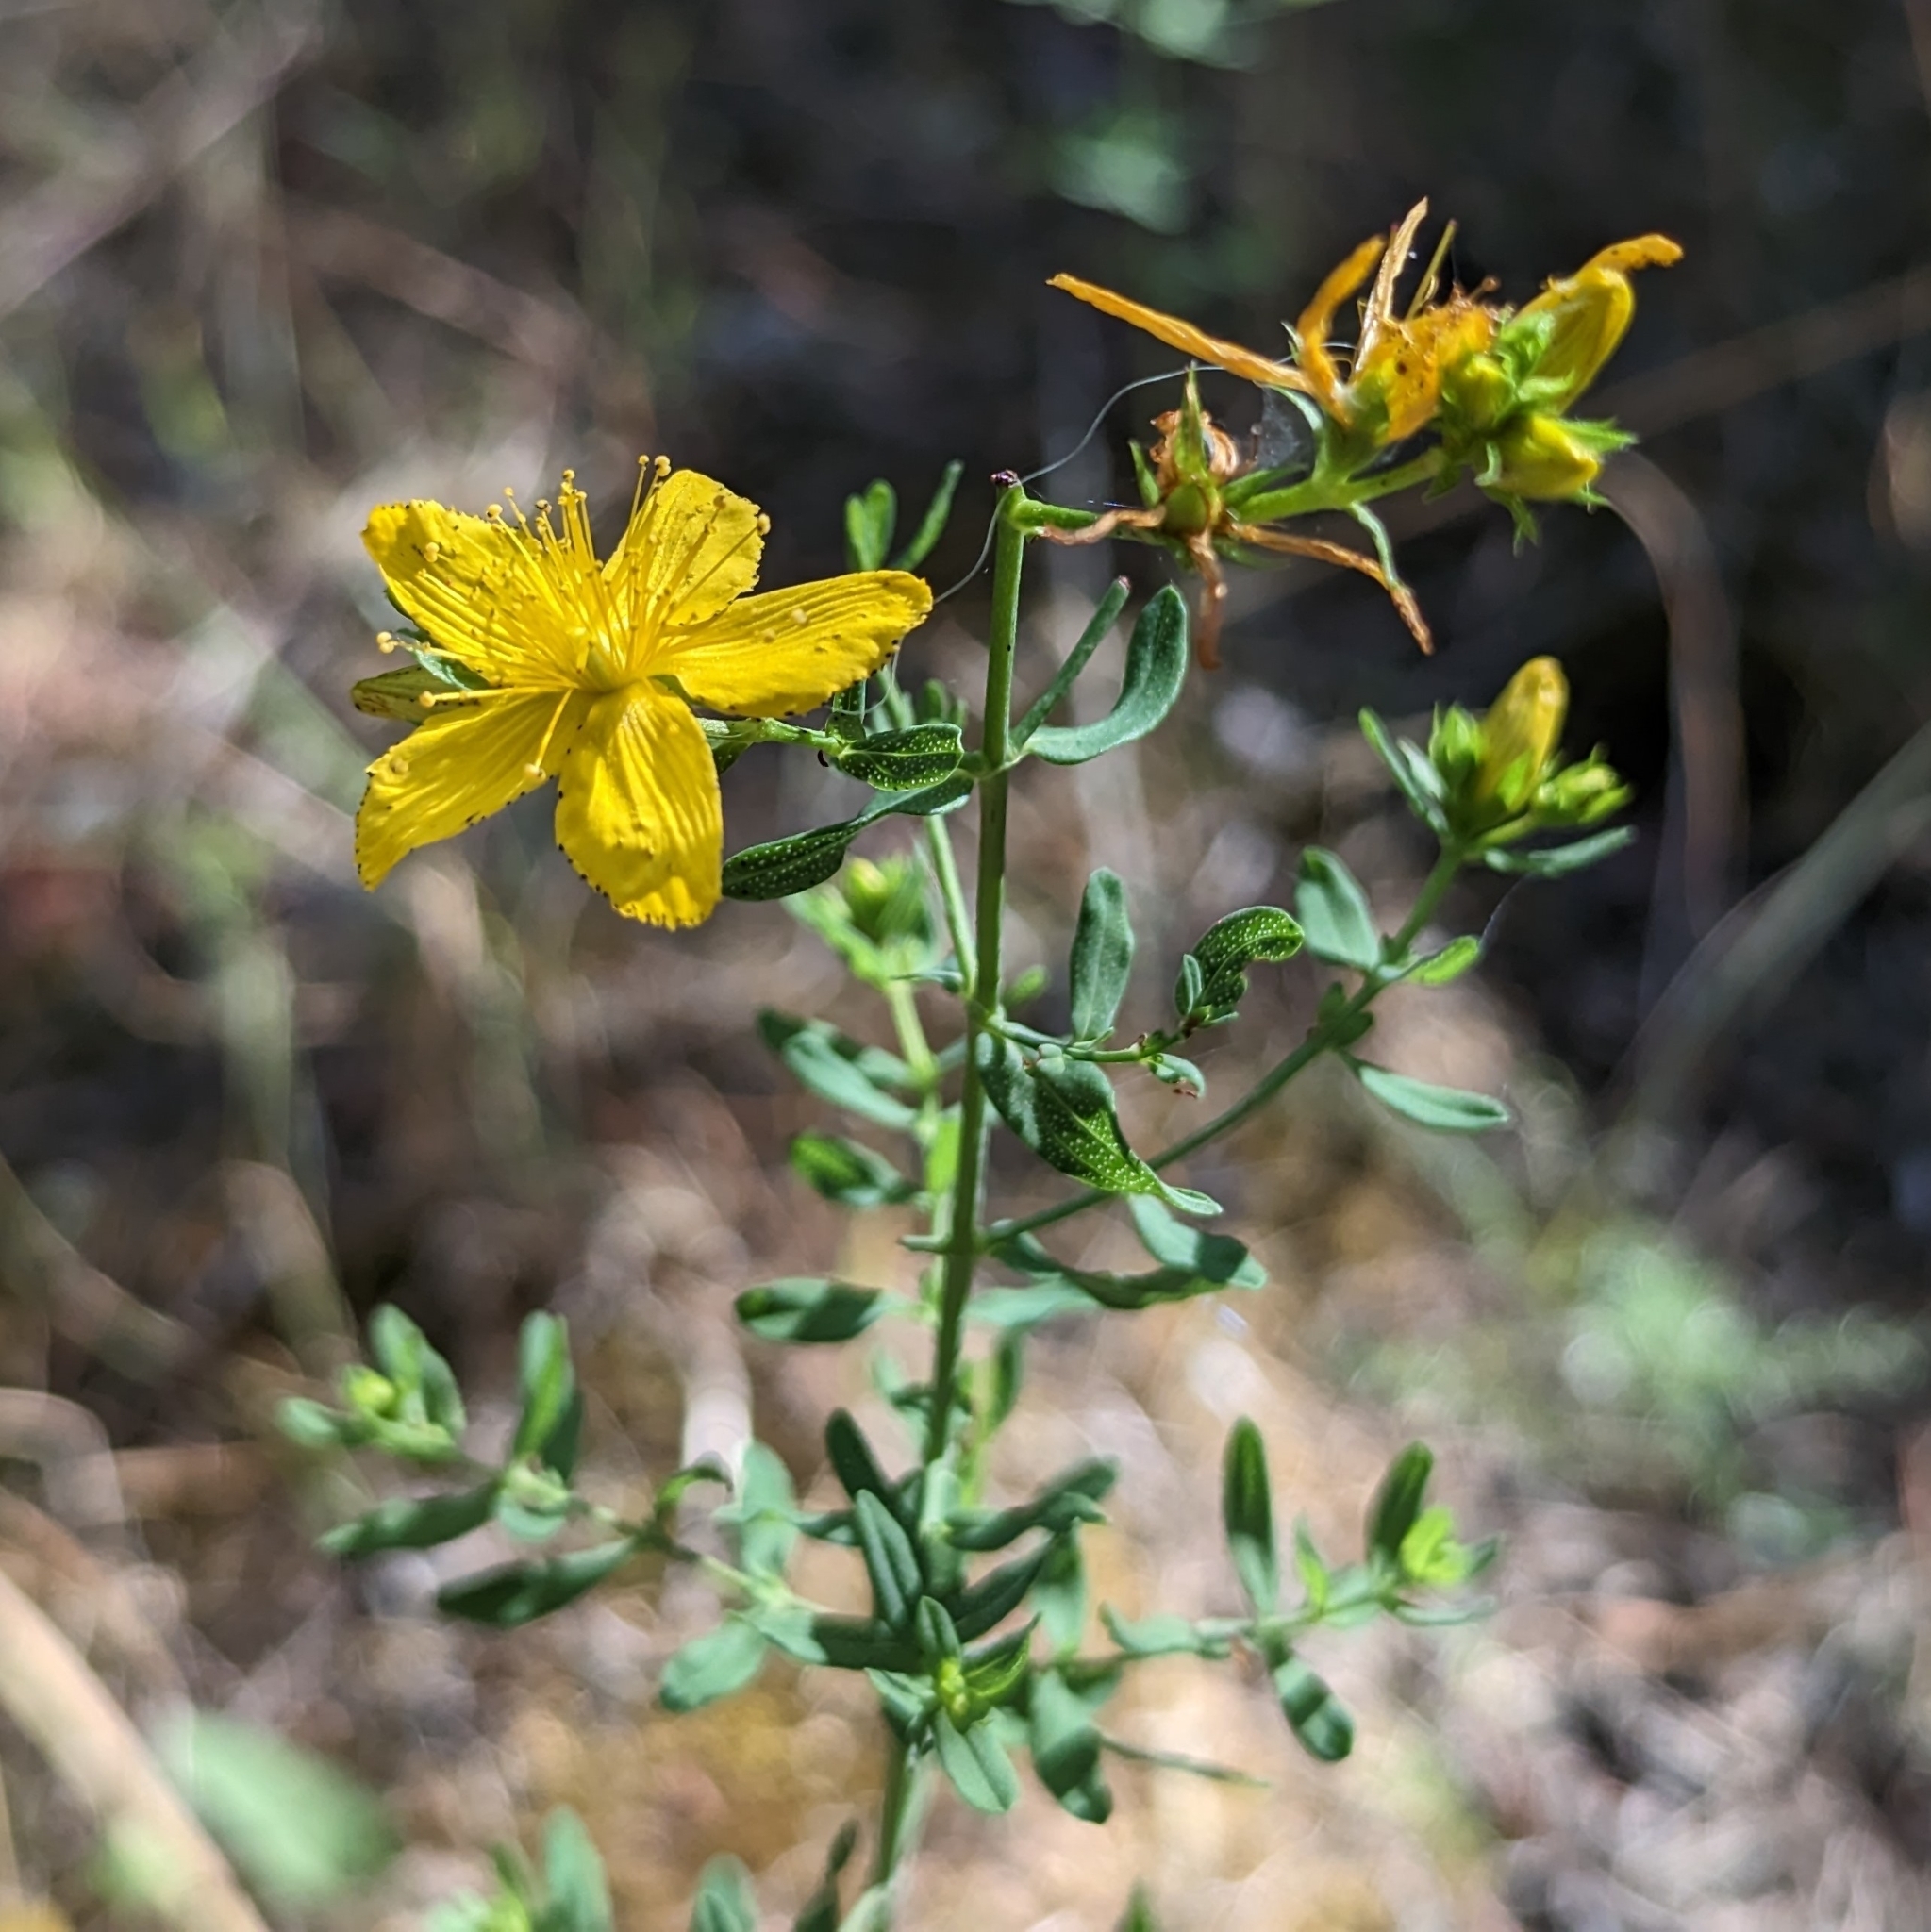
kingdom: Plantae
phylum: Tracheophyta
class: Magnoliopsida
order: Malpighiales
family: Hypericaceae
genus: Hypericum
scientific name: Hypericum perforatum
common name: Common st. johnswort
